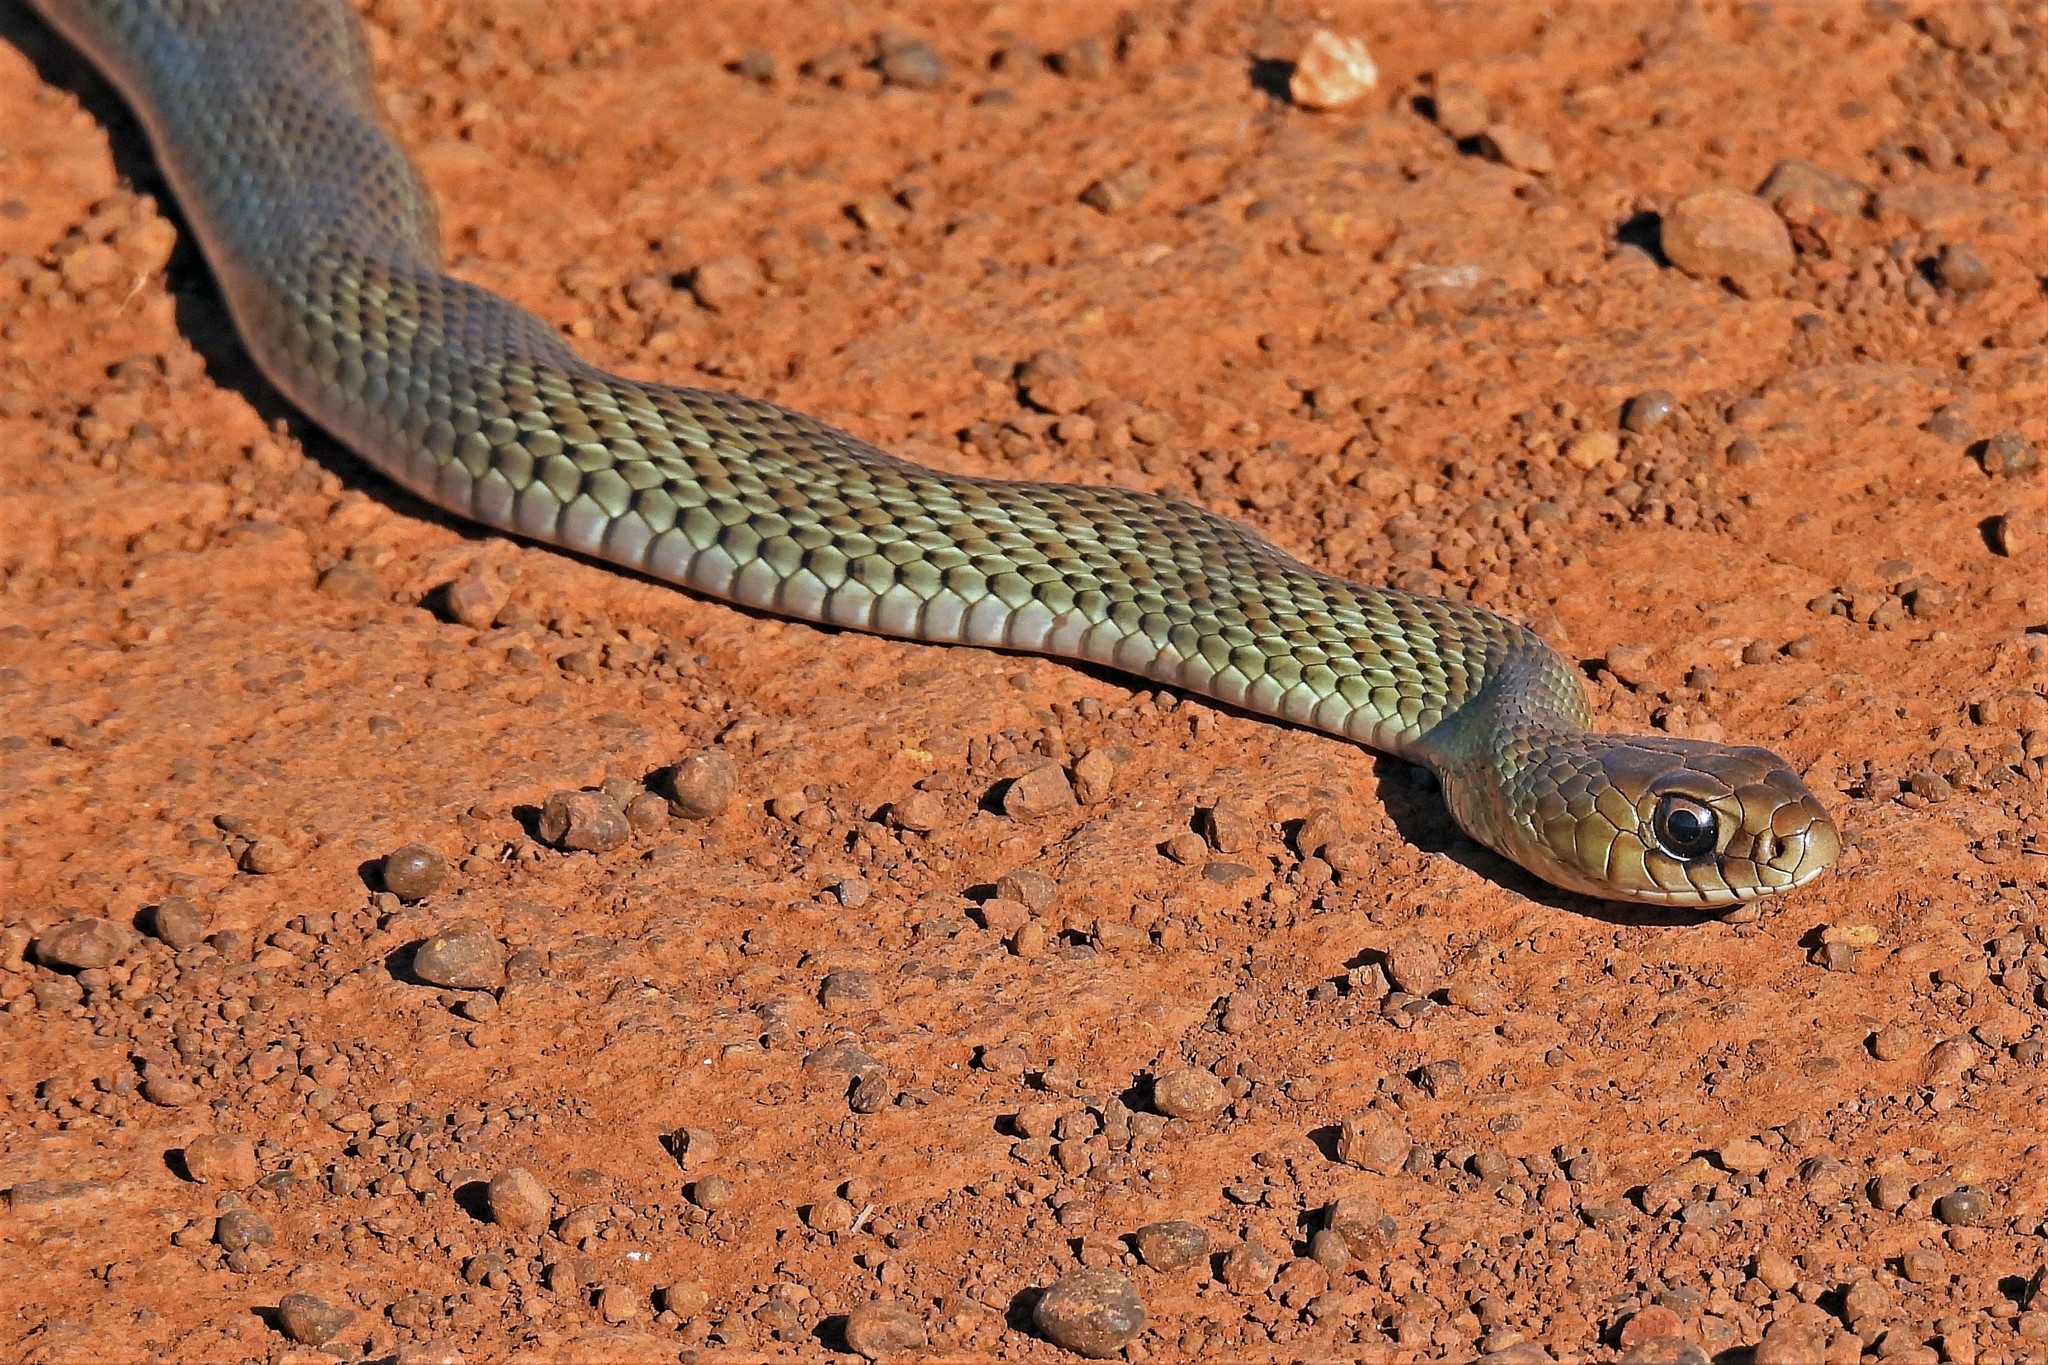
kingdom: Animalia
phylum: Chordata
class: Squamata
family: Colubridae
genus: Philodryas
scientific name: Philodryas patagoniensis
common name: Patagonia green racer
